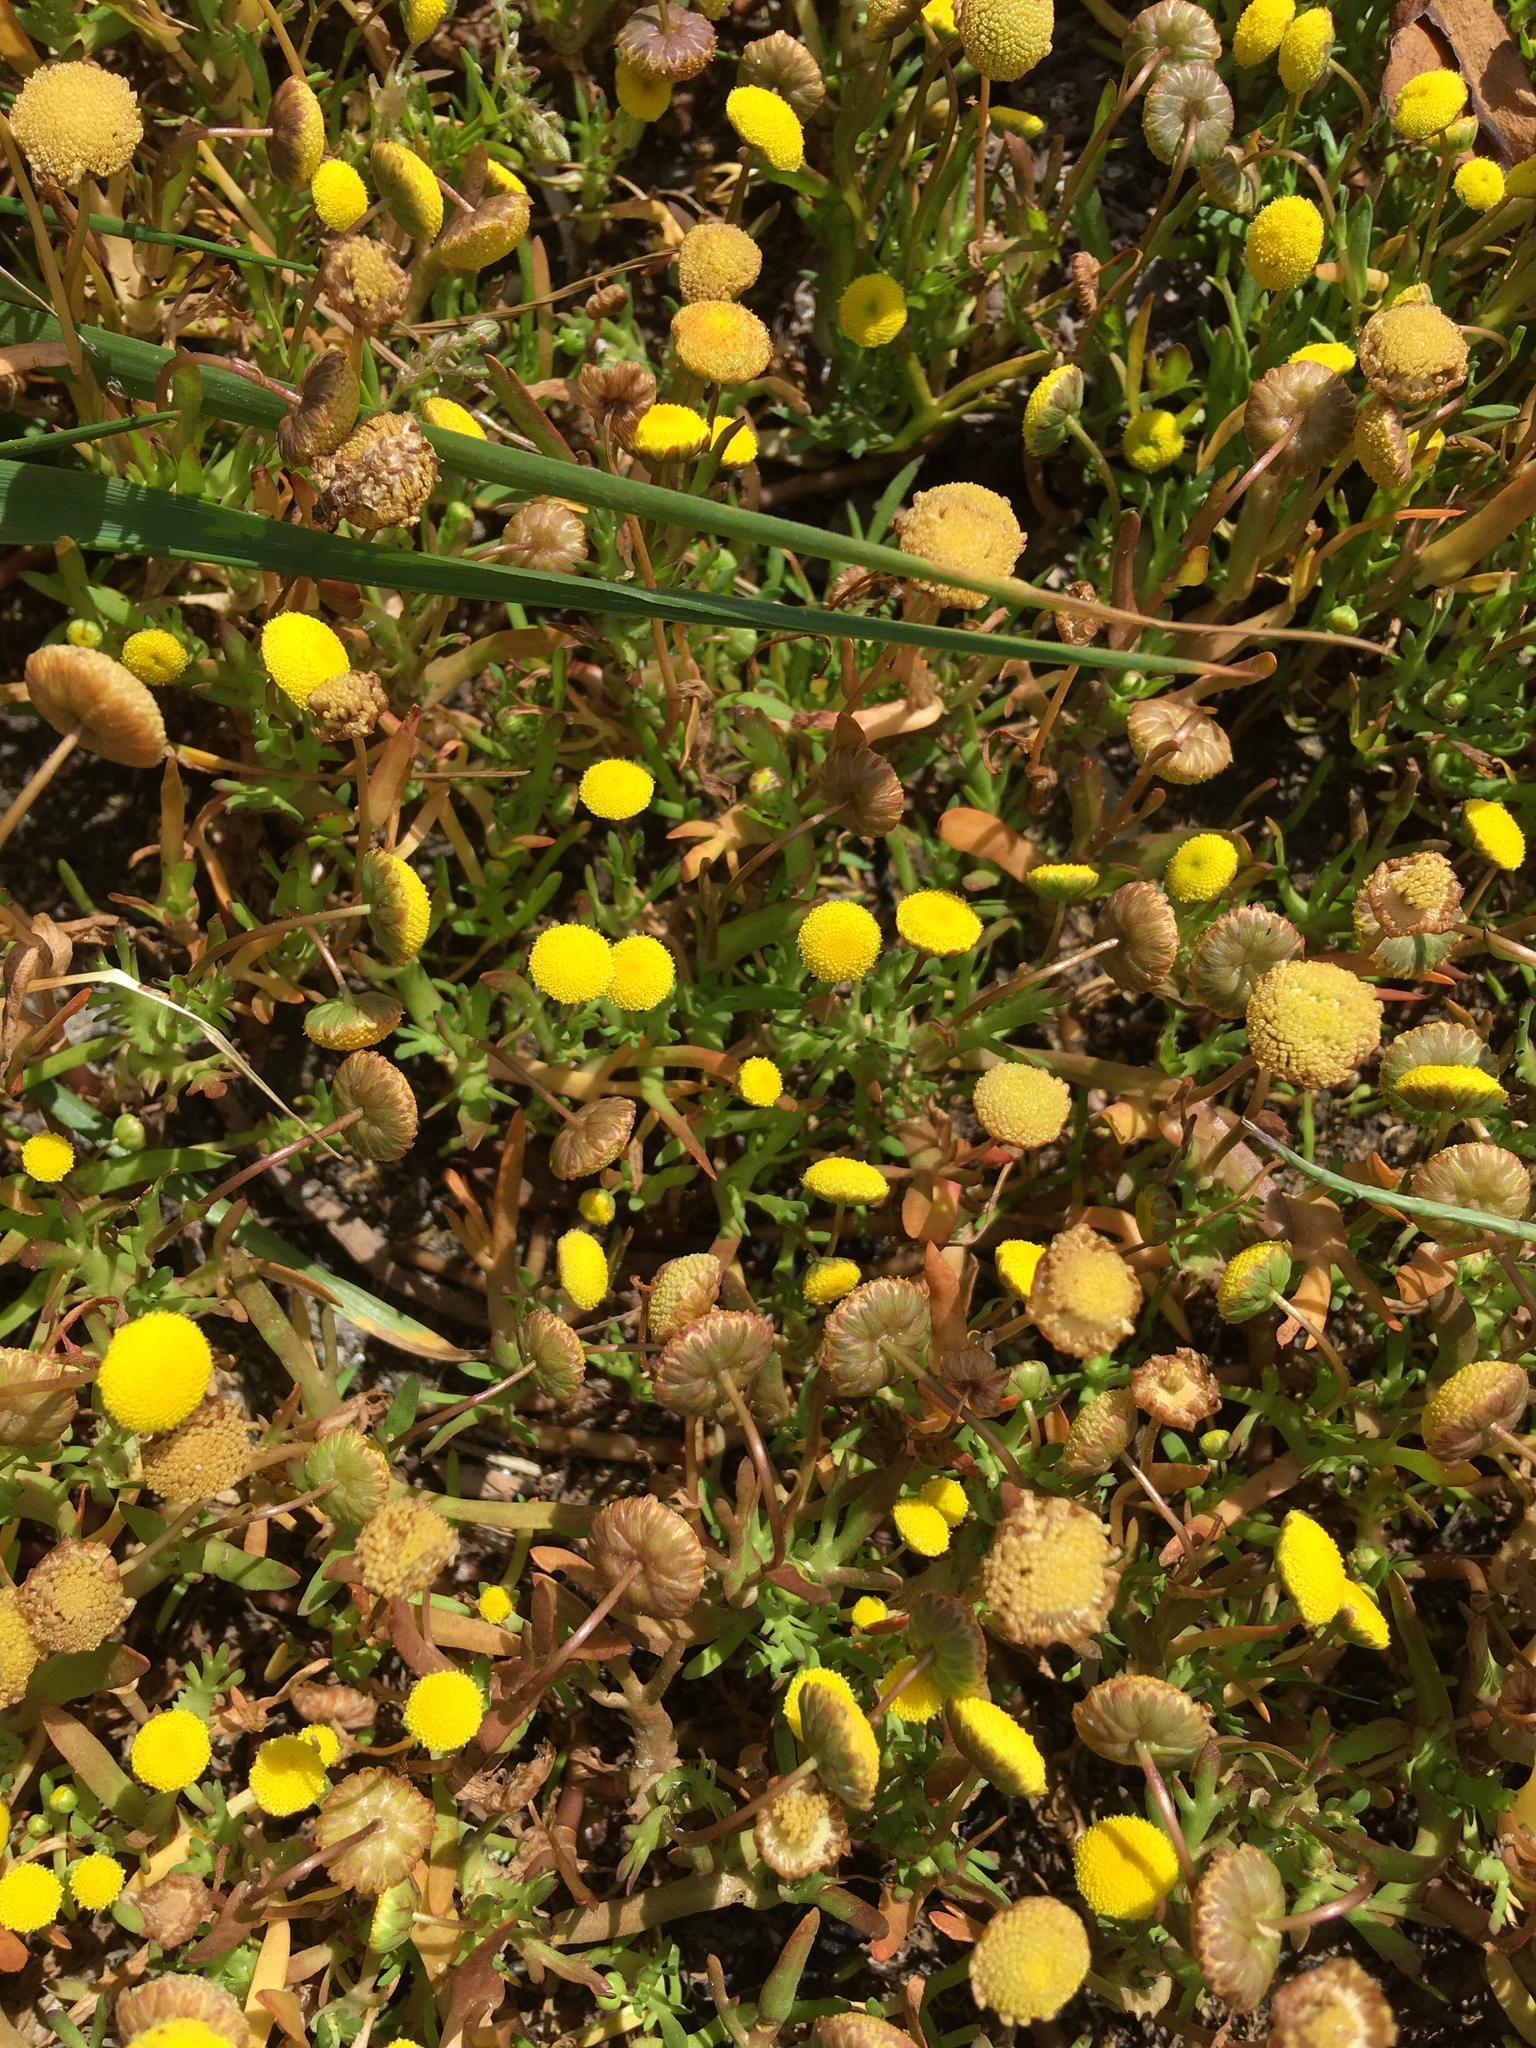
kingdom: Plantae
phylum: Tracheophyta
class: Magnoliopsida
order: Asterales
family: Asteraceae
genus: Cotula
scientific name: Cotula coronopifolia
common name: Buttonweed
